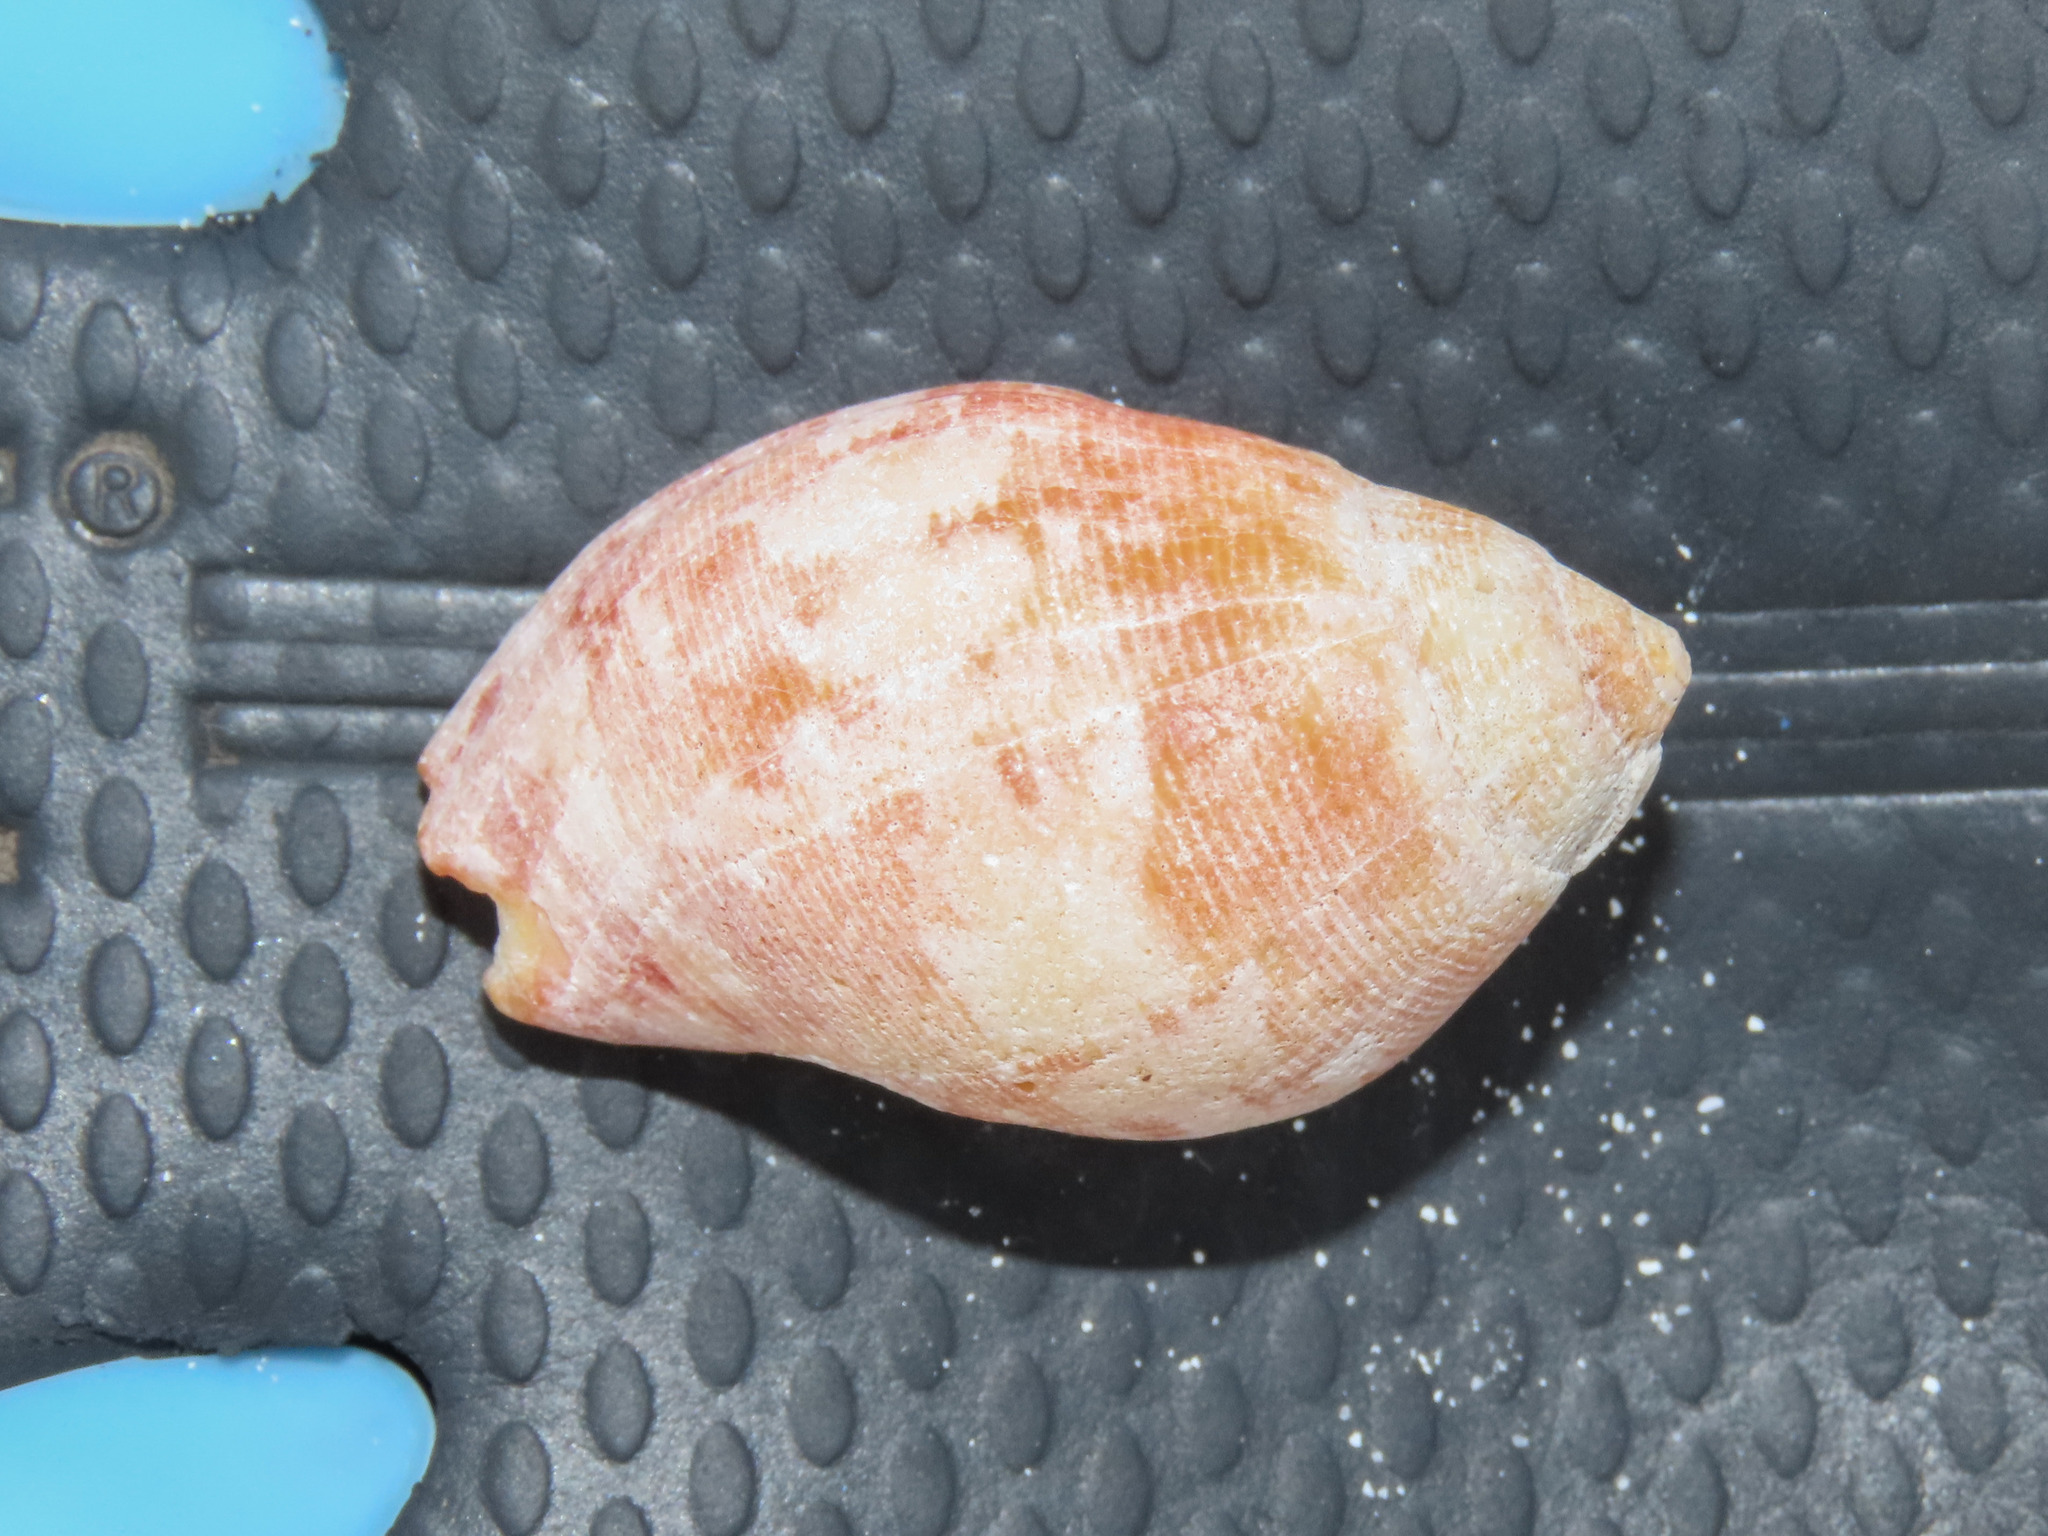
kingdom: Animalia
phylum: Mollusca
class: Gastropoda
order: Neogastropoda
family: Fasciolariidae
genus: Latirolagena
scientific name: Latirolagena smaragdulus
